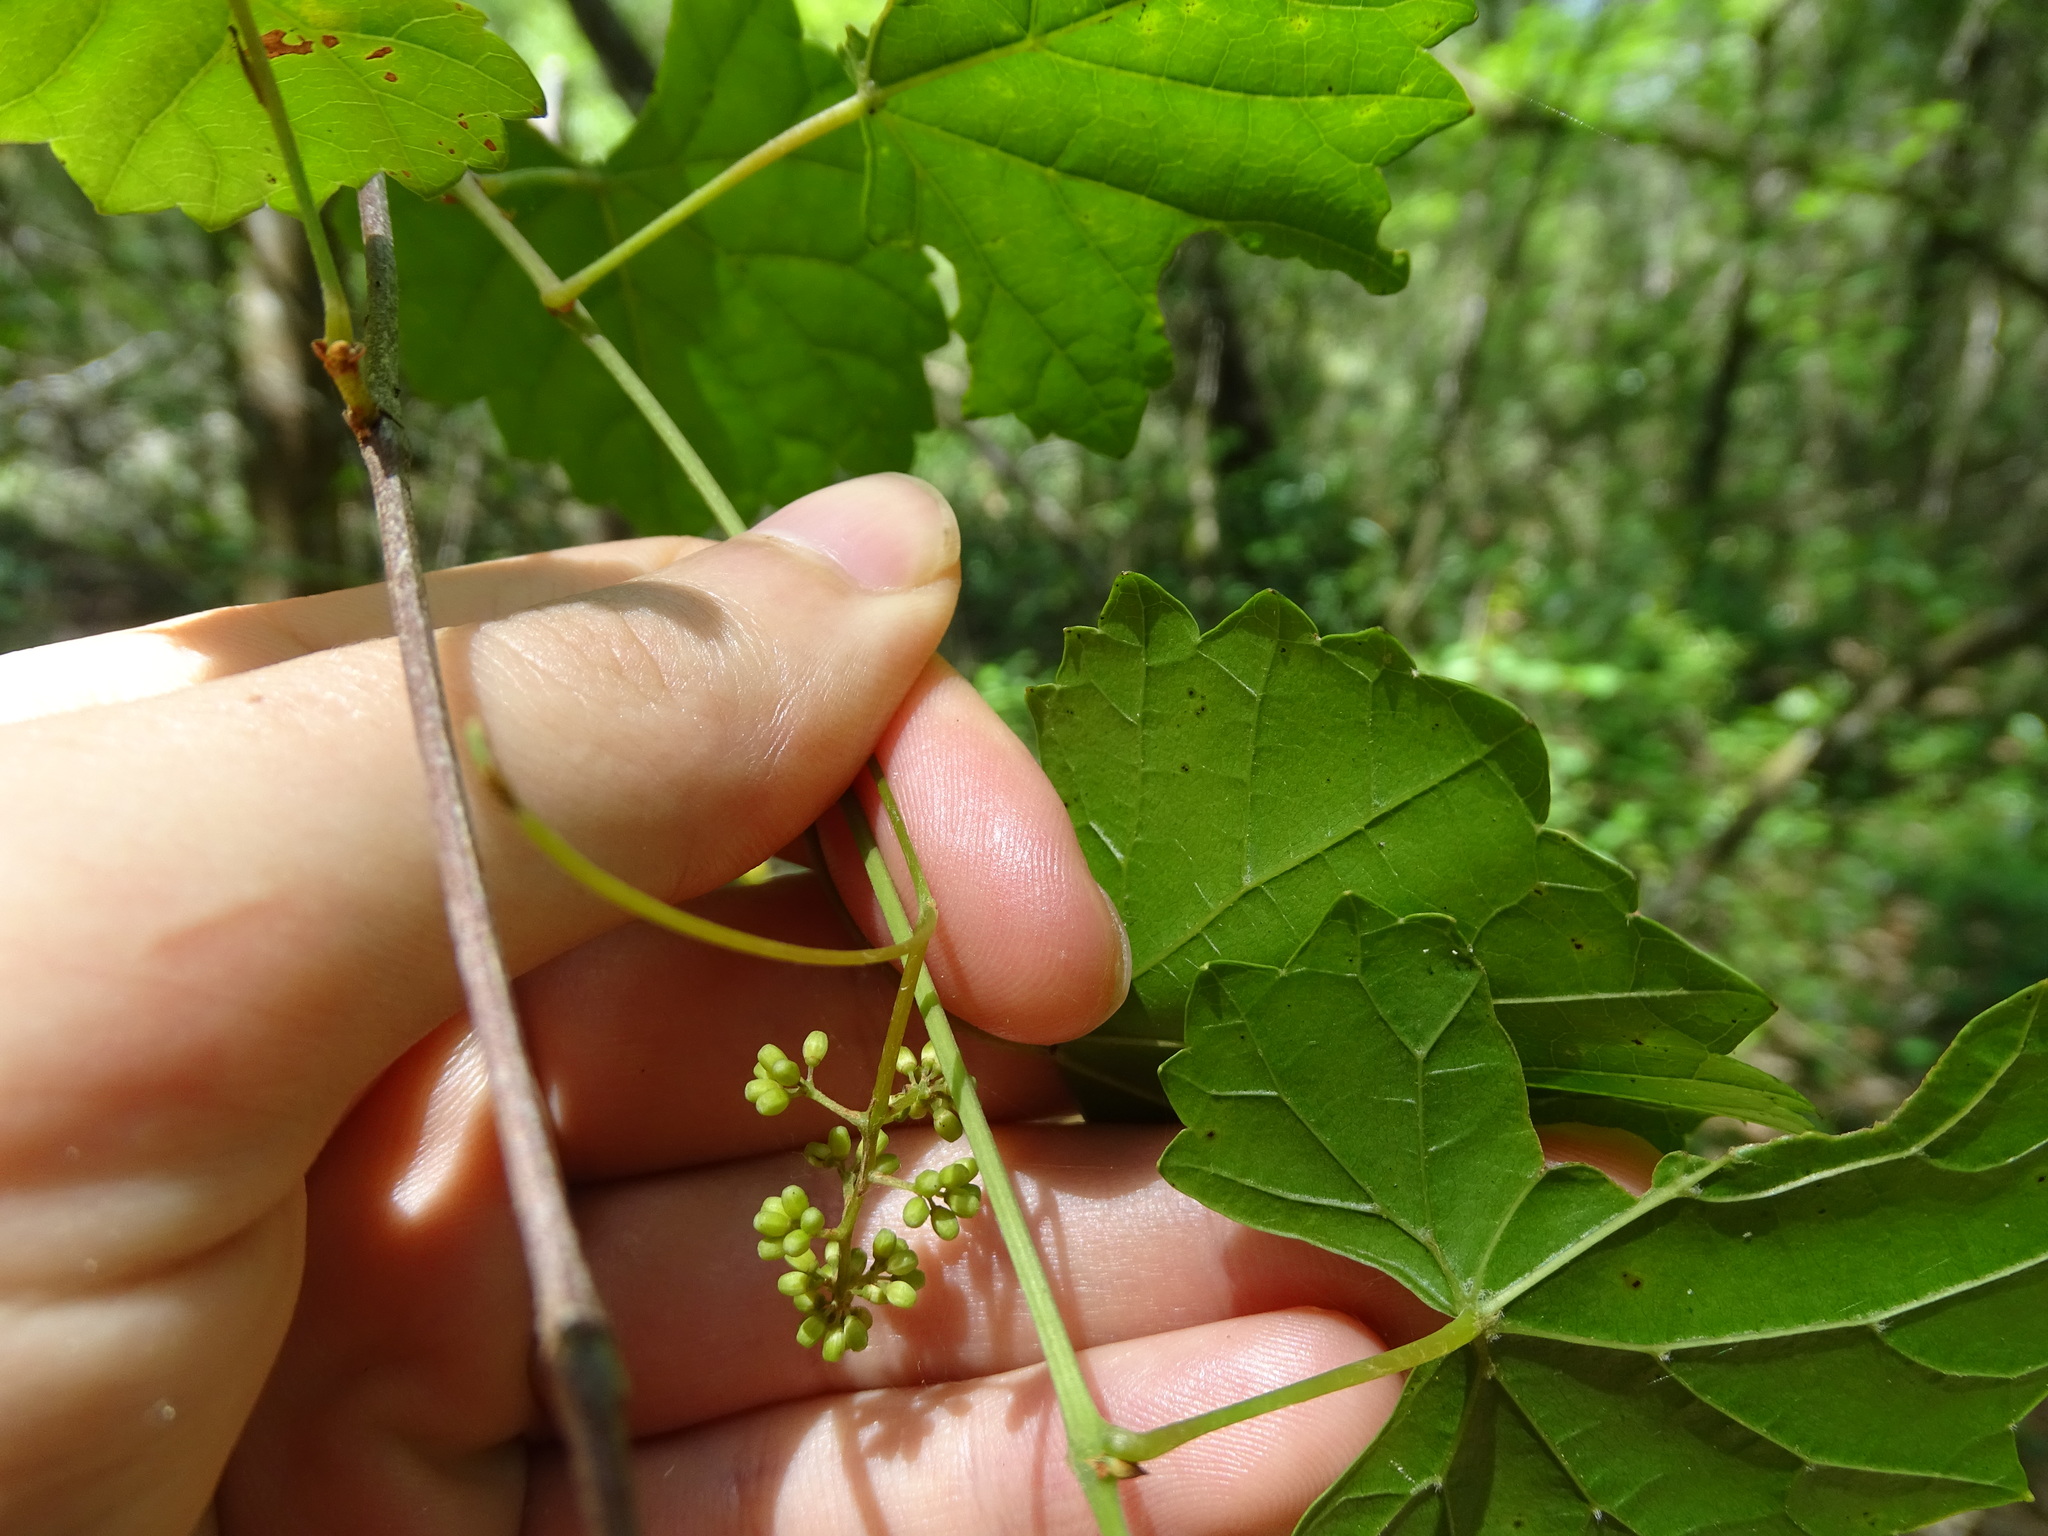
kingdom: Plantae
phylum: Tracheophyta
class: Magnoliopsida
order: Vitales
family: Vitaceae
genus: Vitis
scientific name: Vitis rotundifolia
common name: Muscadine grape
